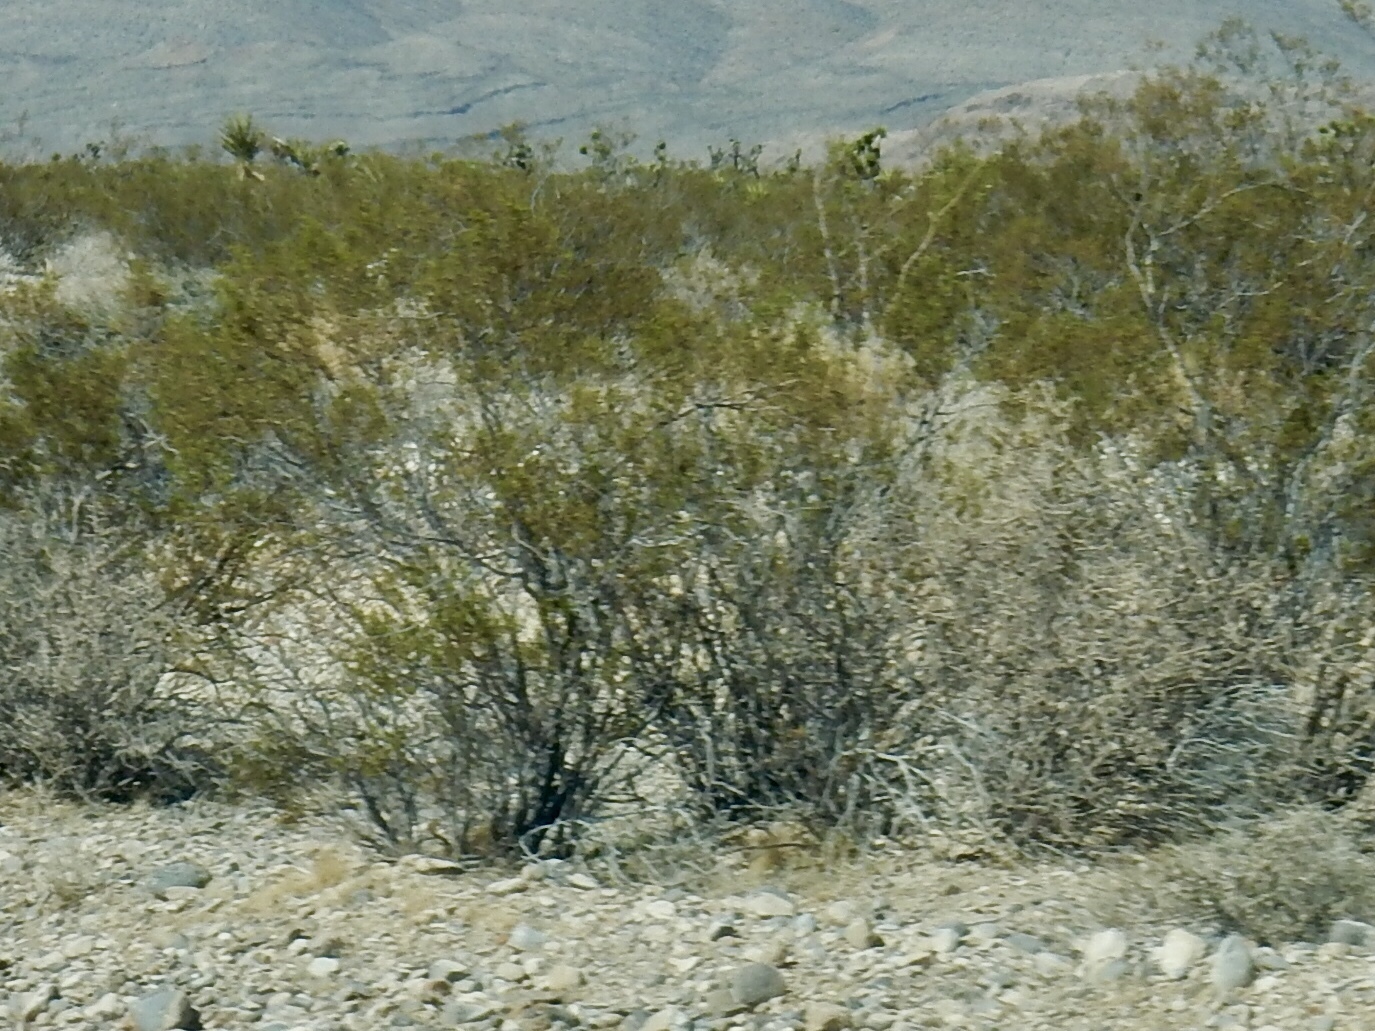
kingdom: Plantae
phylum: Tracheophyta
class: Magnoliopsida
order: Zygophyllales
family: Zygophyllaceae
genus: Larrea
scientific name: Larrea tridentata
